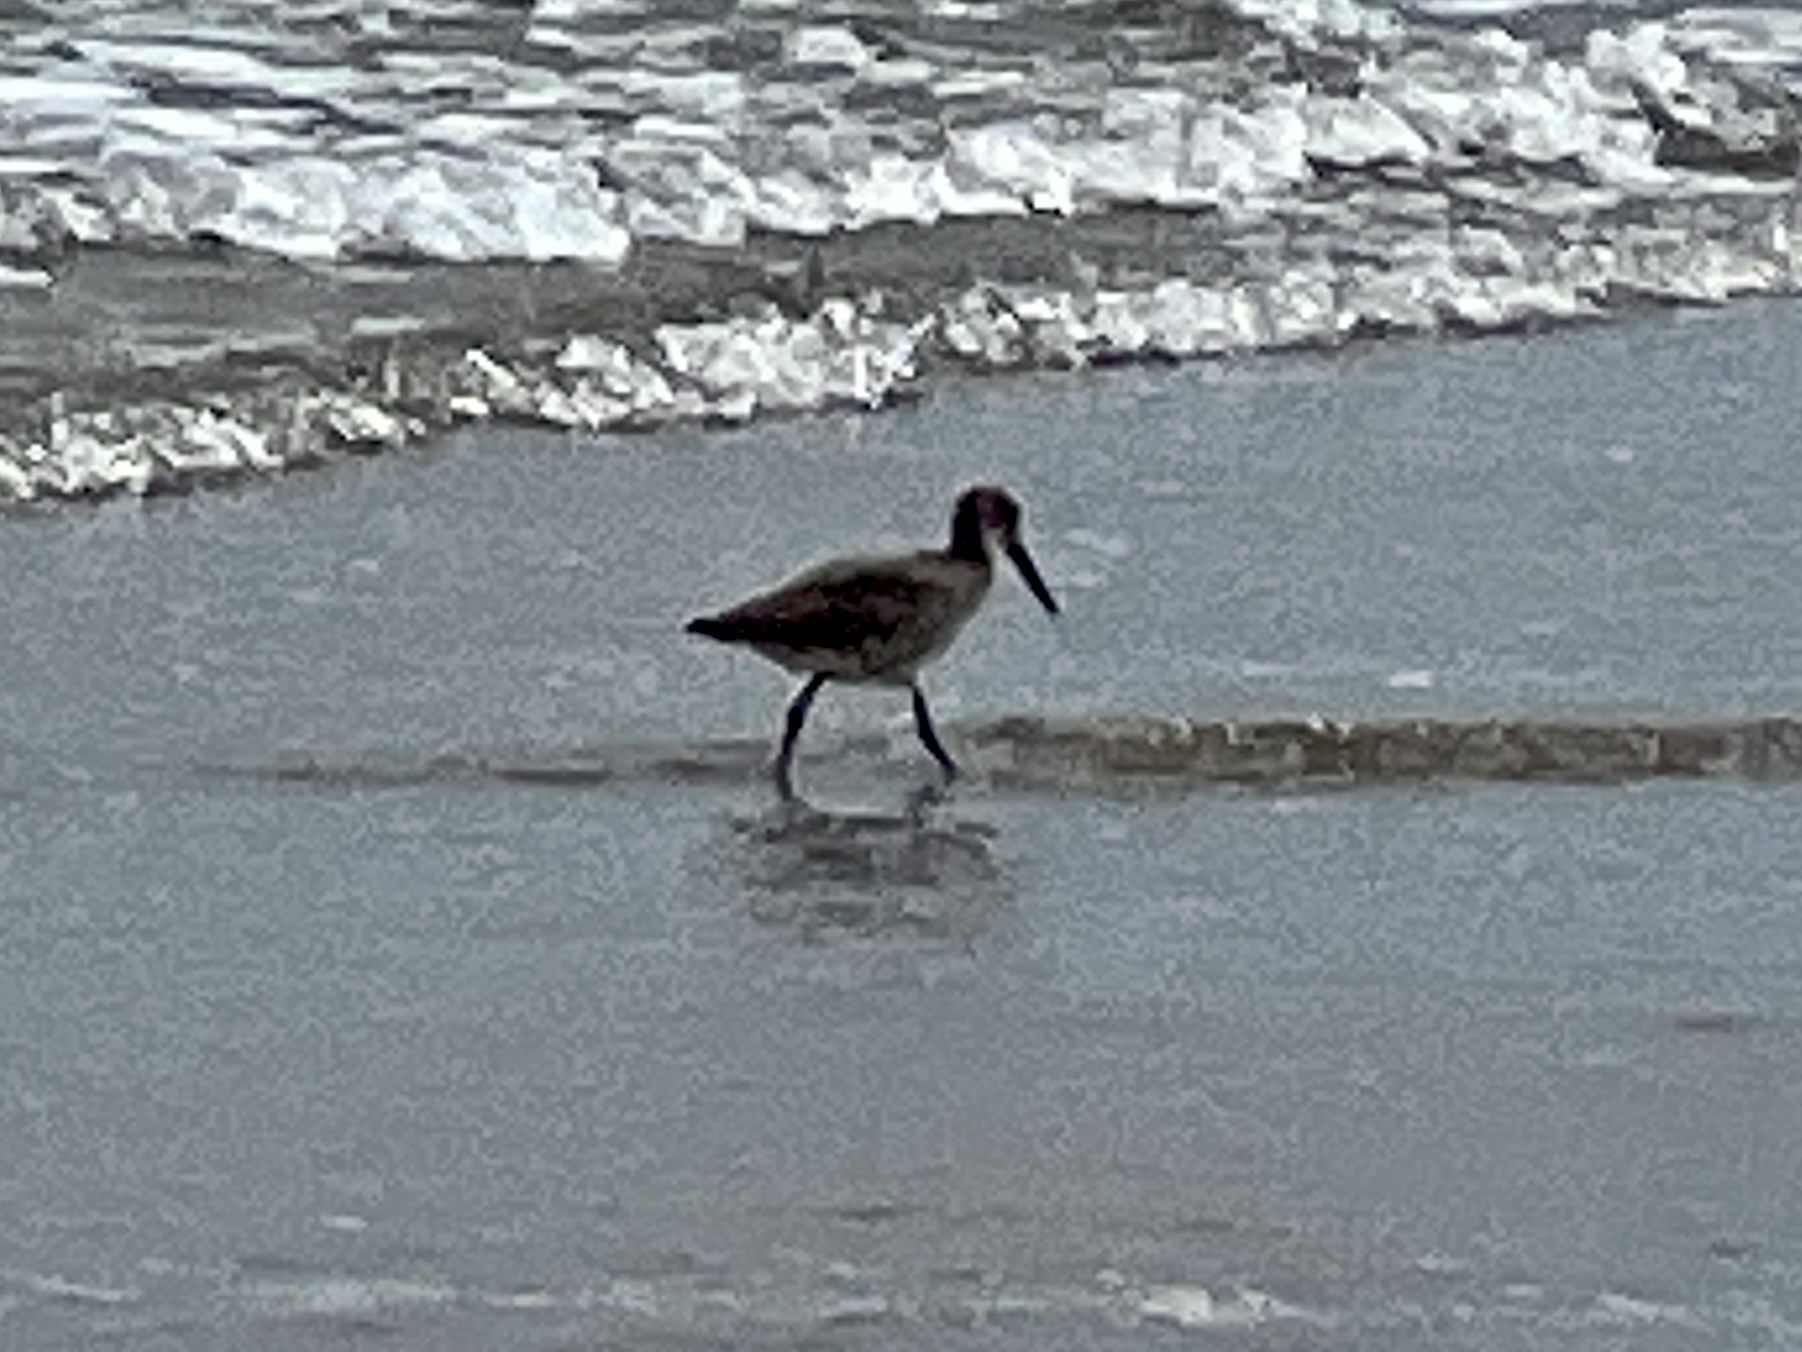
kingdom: Animalia
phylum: Chordata
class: Aves
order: Charadriiformes
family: Scolopacidae
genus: Tringa
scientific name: Tringa semipalmata
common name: Willet
